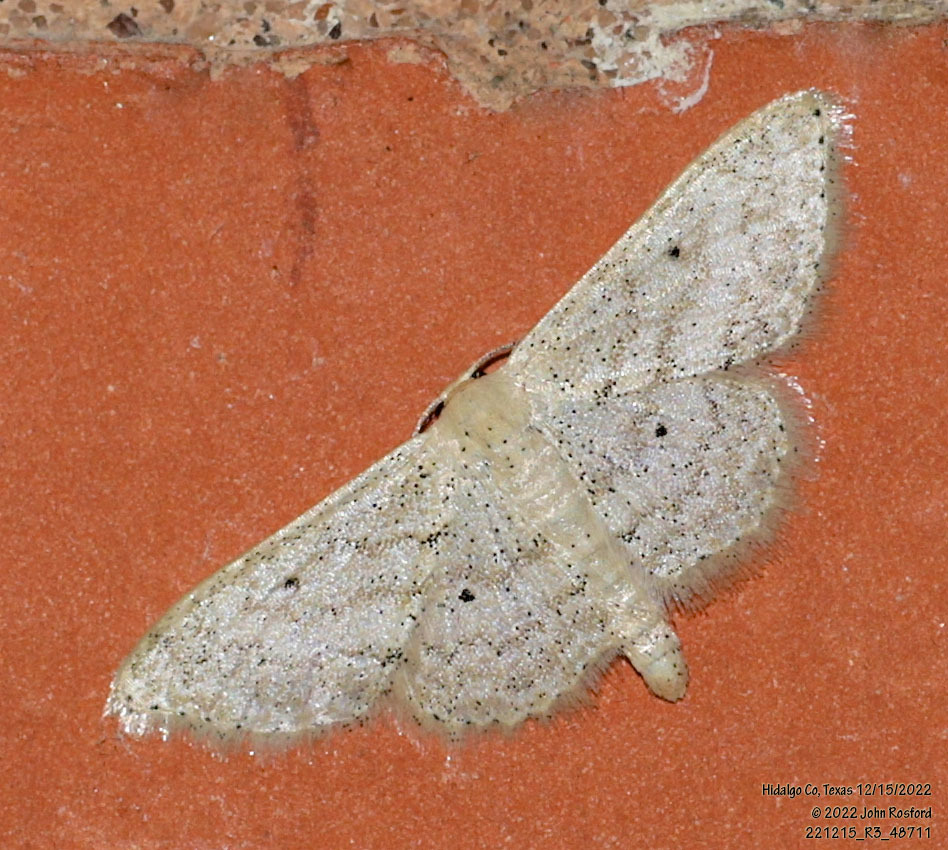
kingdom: Animalia
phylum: Arthropoda
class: Insecta
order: Lepidoptera
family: Geometridae
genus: Scopula
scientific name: Scopula benitaria
